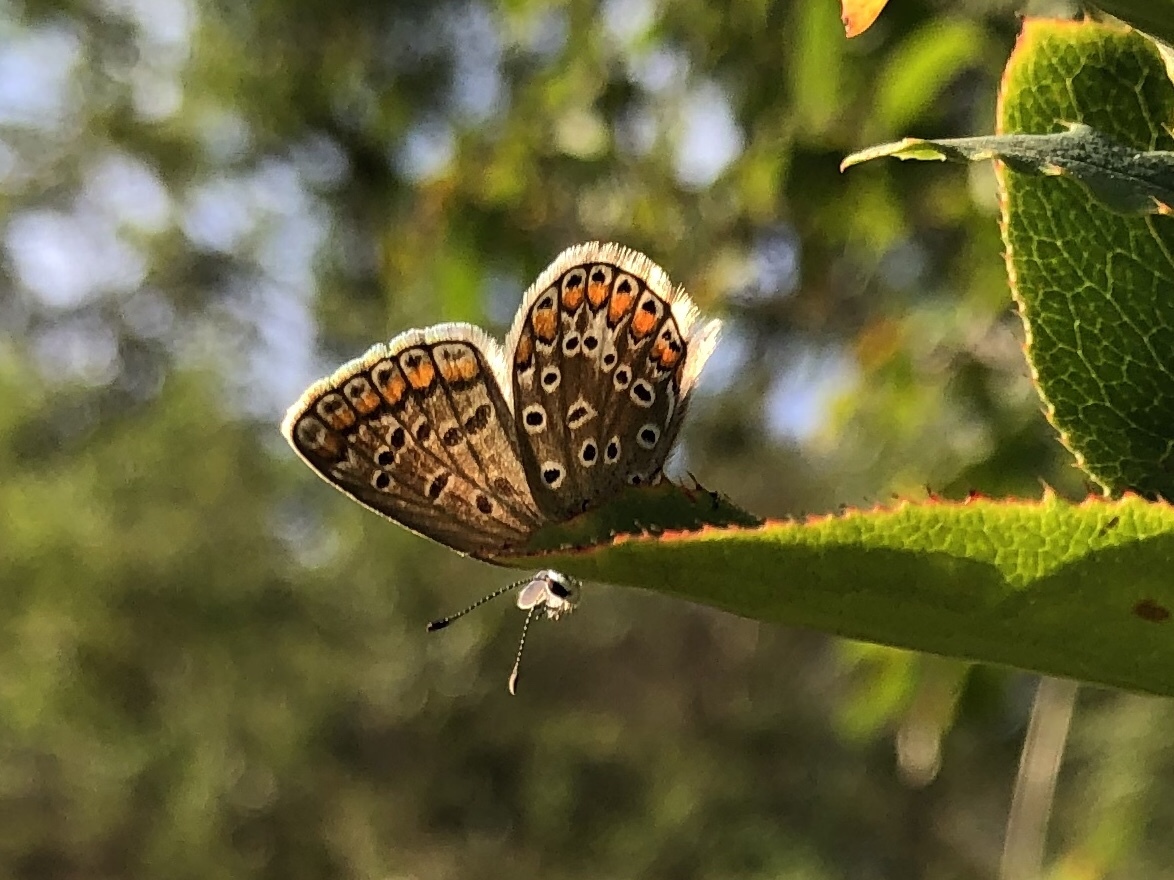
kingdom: Animalia
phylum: Arthropoda
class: Insecta
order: Lepidoptera
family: Lycaenidae
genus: Polyommatus
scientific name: Polyommatus icarus
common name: Common blue
